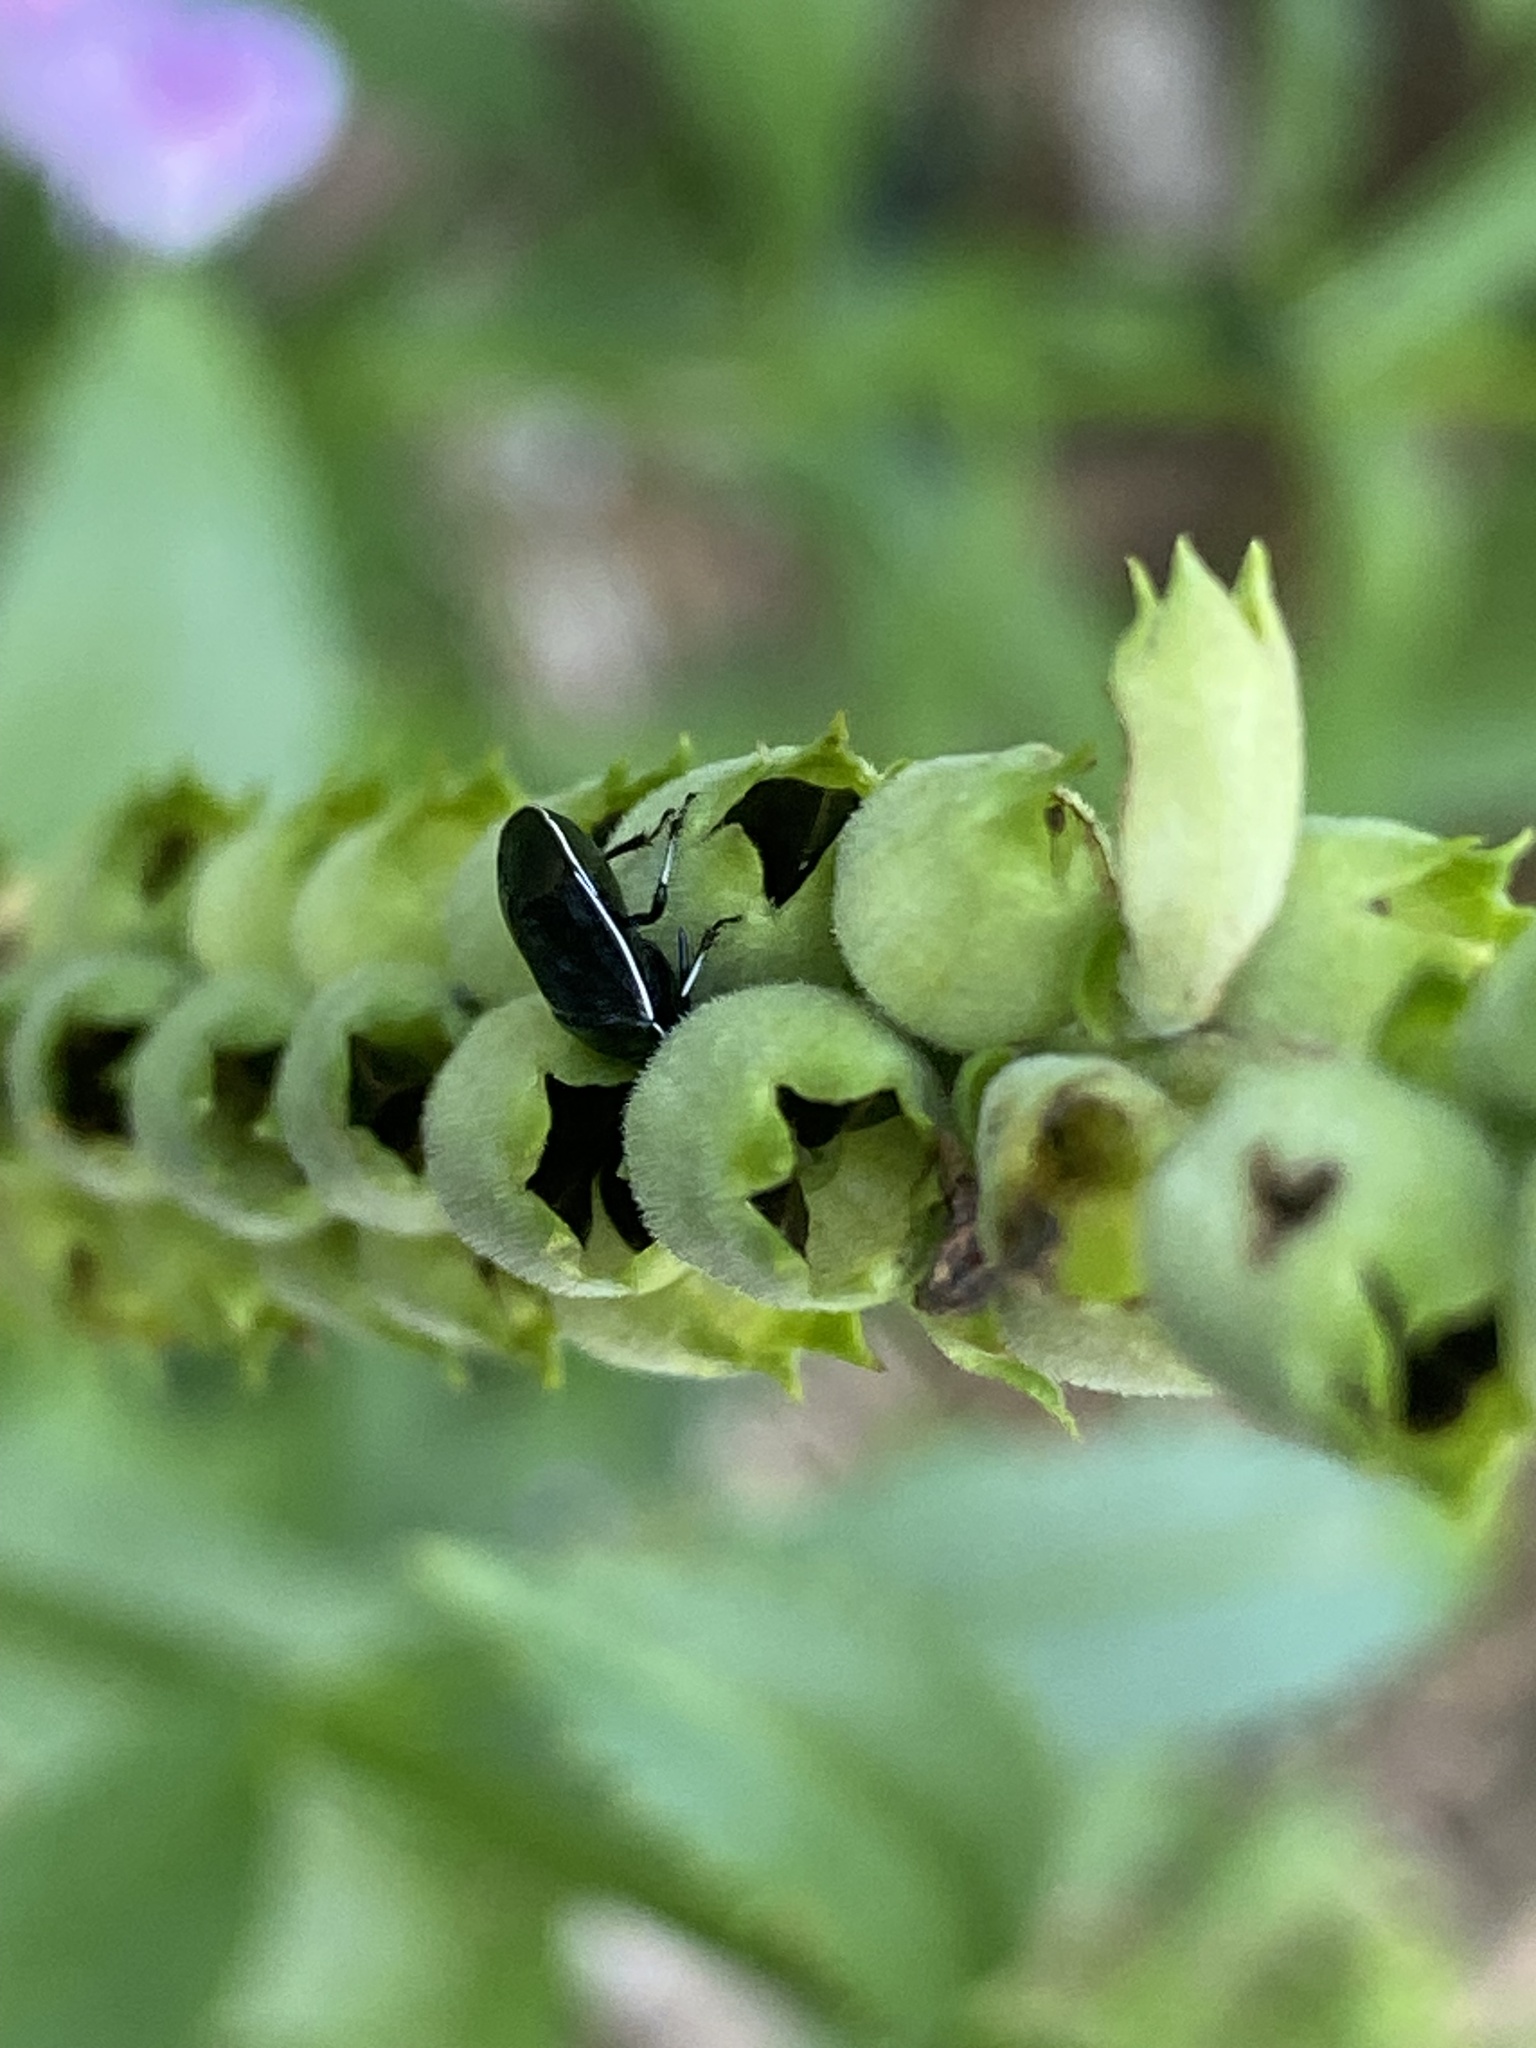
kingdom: Animalia
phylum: Arthropoda
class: Insecta
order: Hemiptera
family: Cydnidae
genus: Sehirus
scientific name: Sehirus cinctus
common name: White-margined burrower bug
